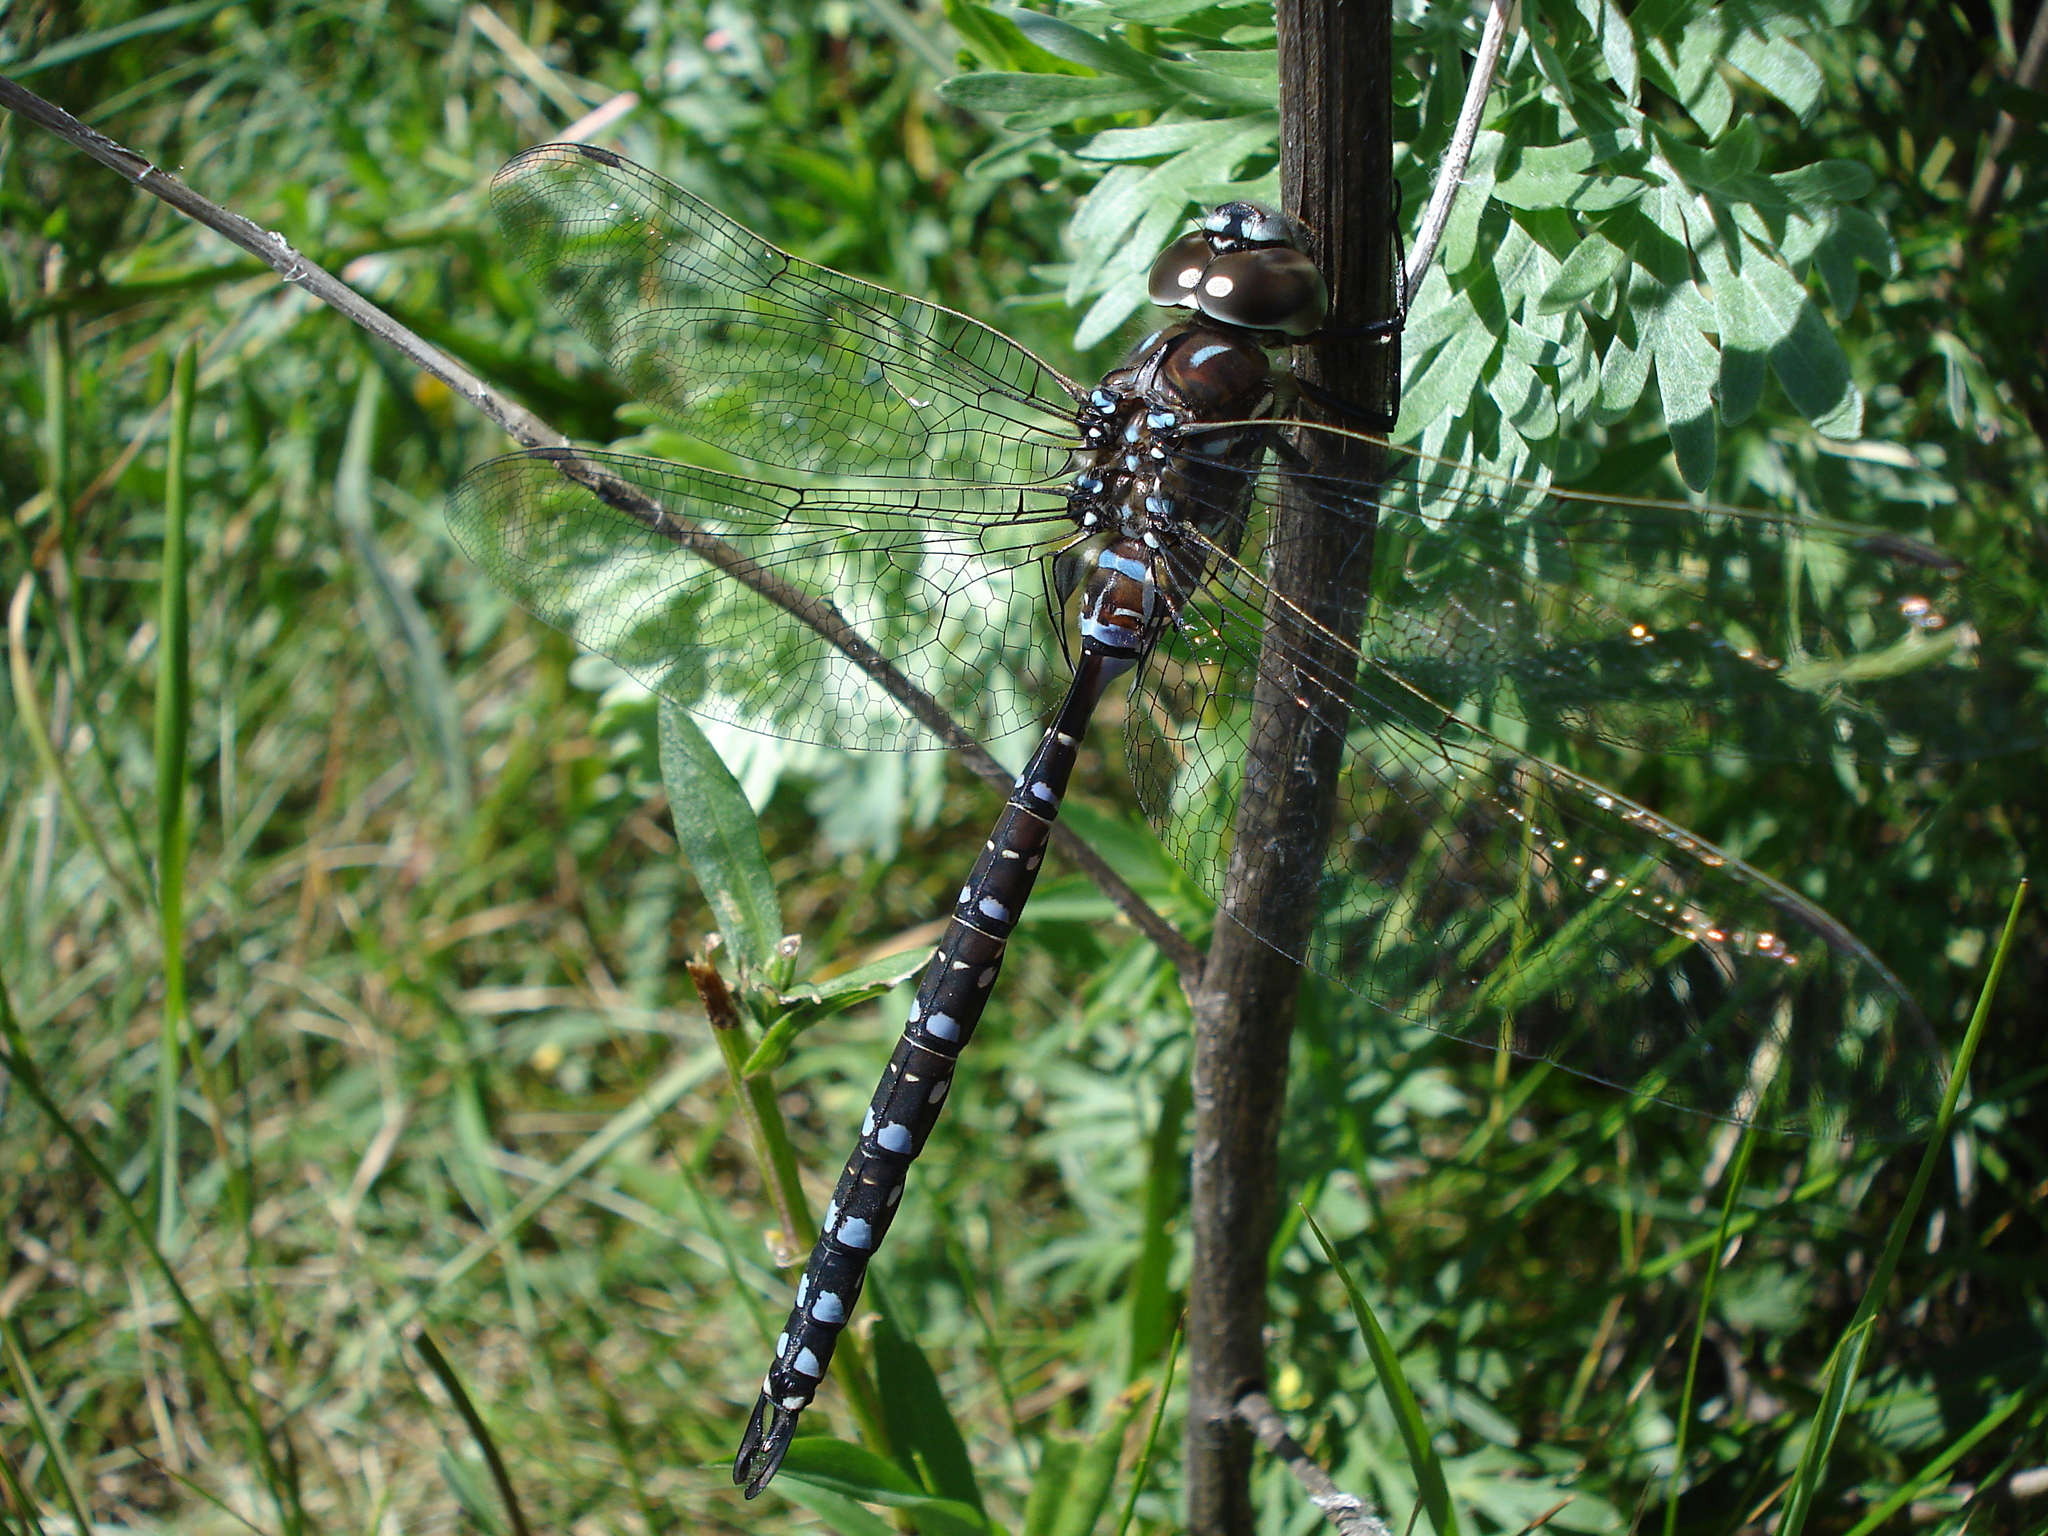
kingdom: Animalia
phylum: Arthropoda
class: Insecta
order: Odonata
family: Aeshnidae
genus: Aeshna
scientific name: Aeshna interrupta
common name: Variable darner
